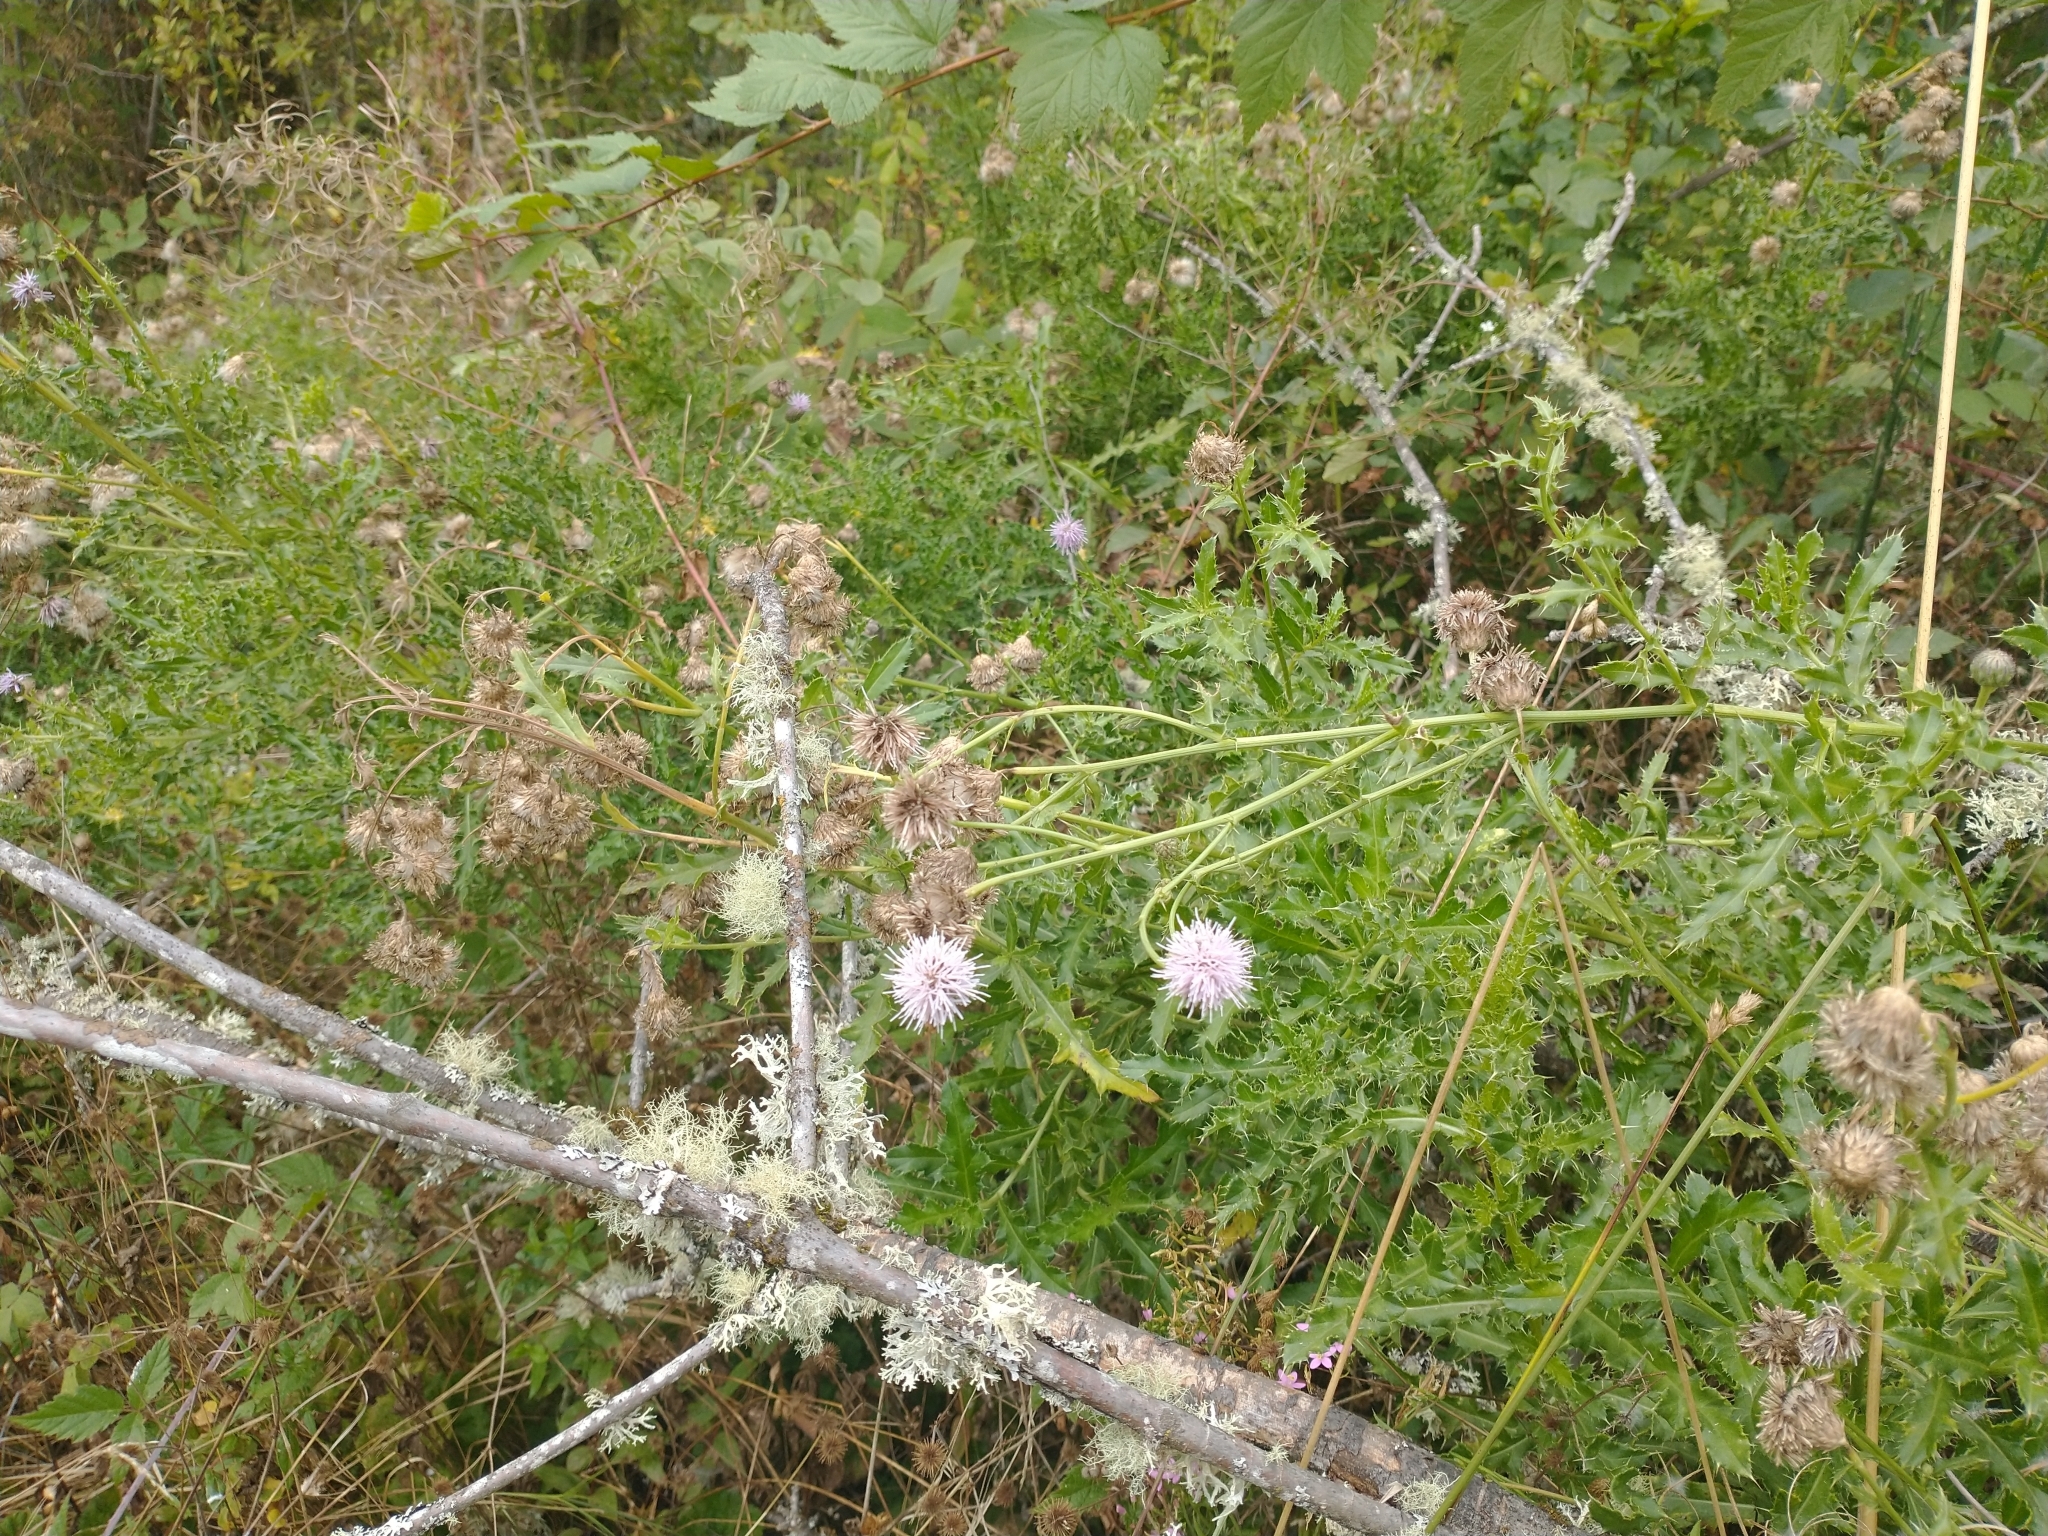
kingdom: Plantae
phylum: Tracheophyta
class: Magnoliopsida
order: Asterales
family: Asteraceae
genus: Cirsium
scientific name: Cirsium arvense
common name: Creeping thistle
